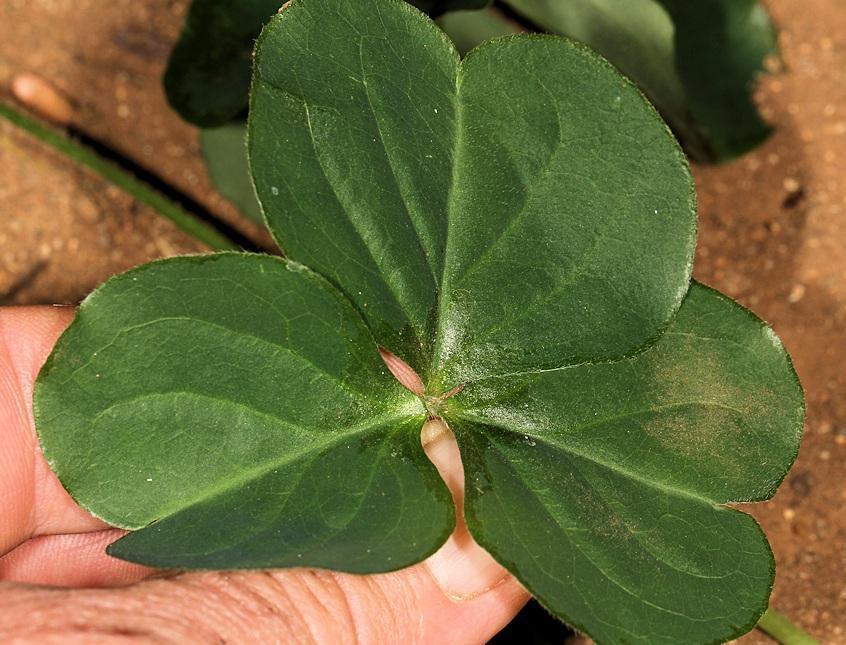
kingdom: Plantae
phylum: Tracheophyta
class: Magnoliopsida
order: Oxalidales
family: Oxalidaceae
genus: Oxalis
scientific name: Oxalis debilis
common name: Large-flowered pink-sorrel
